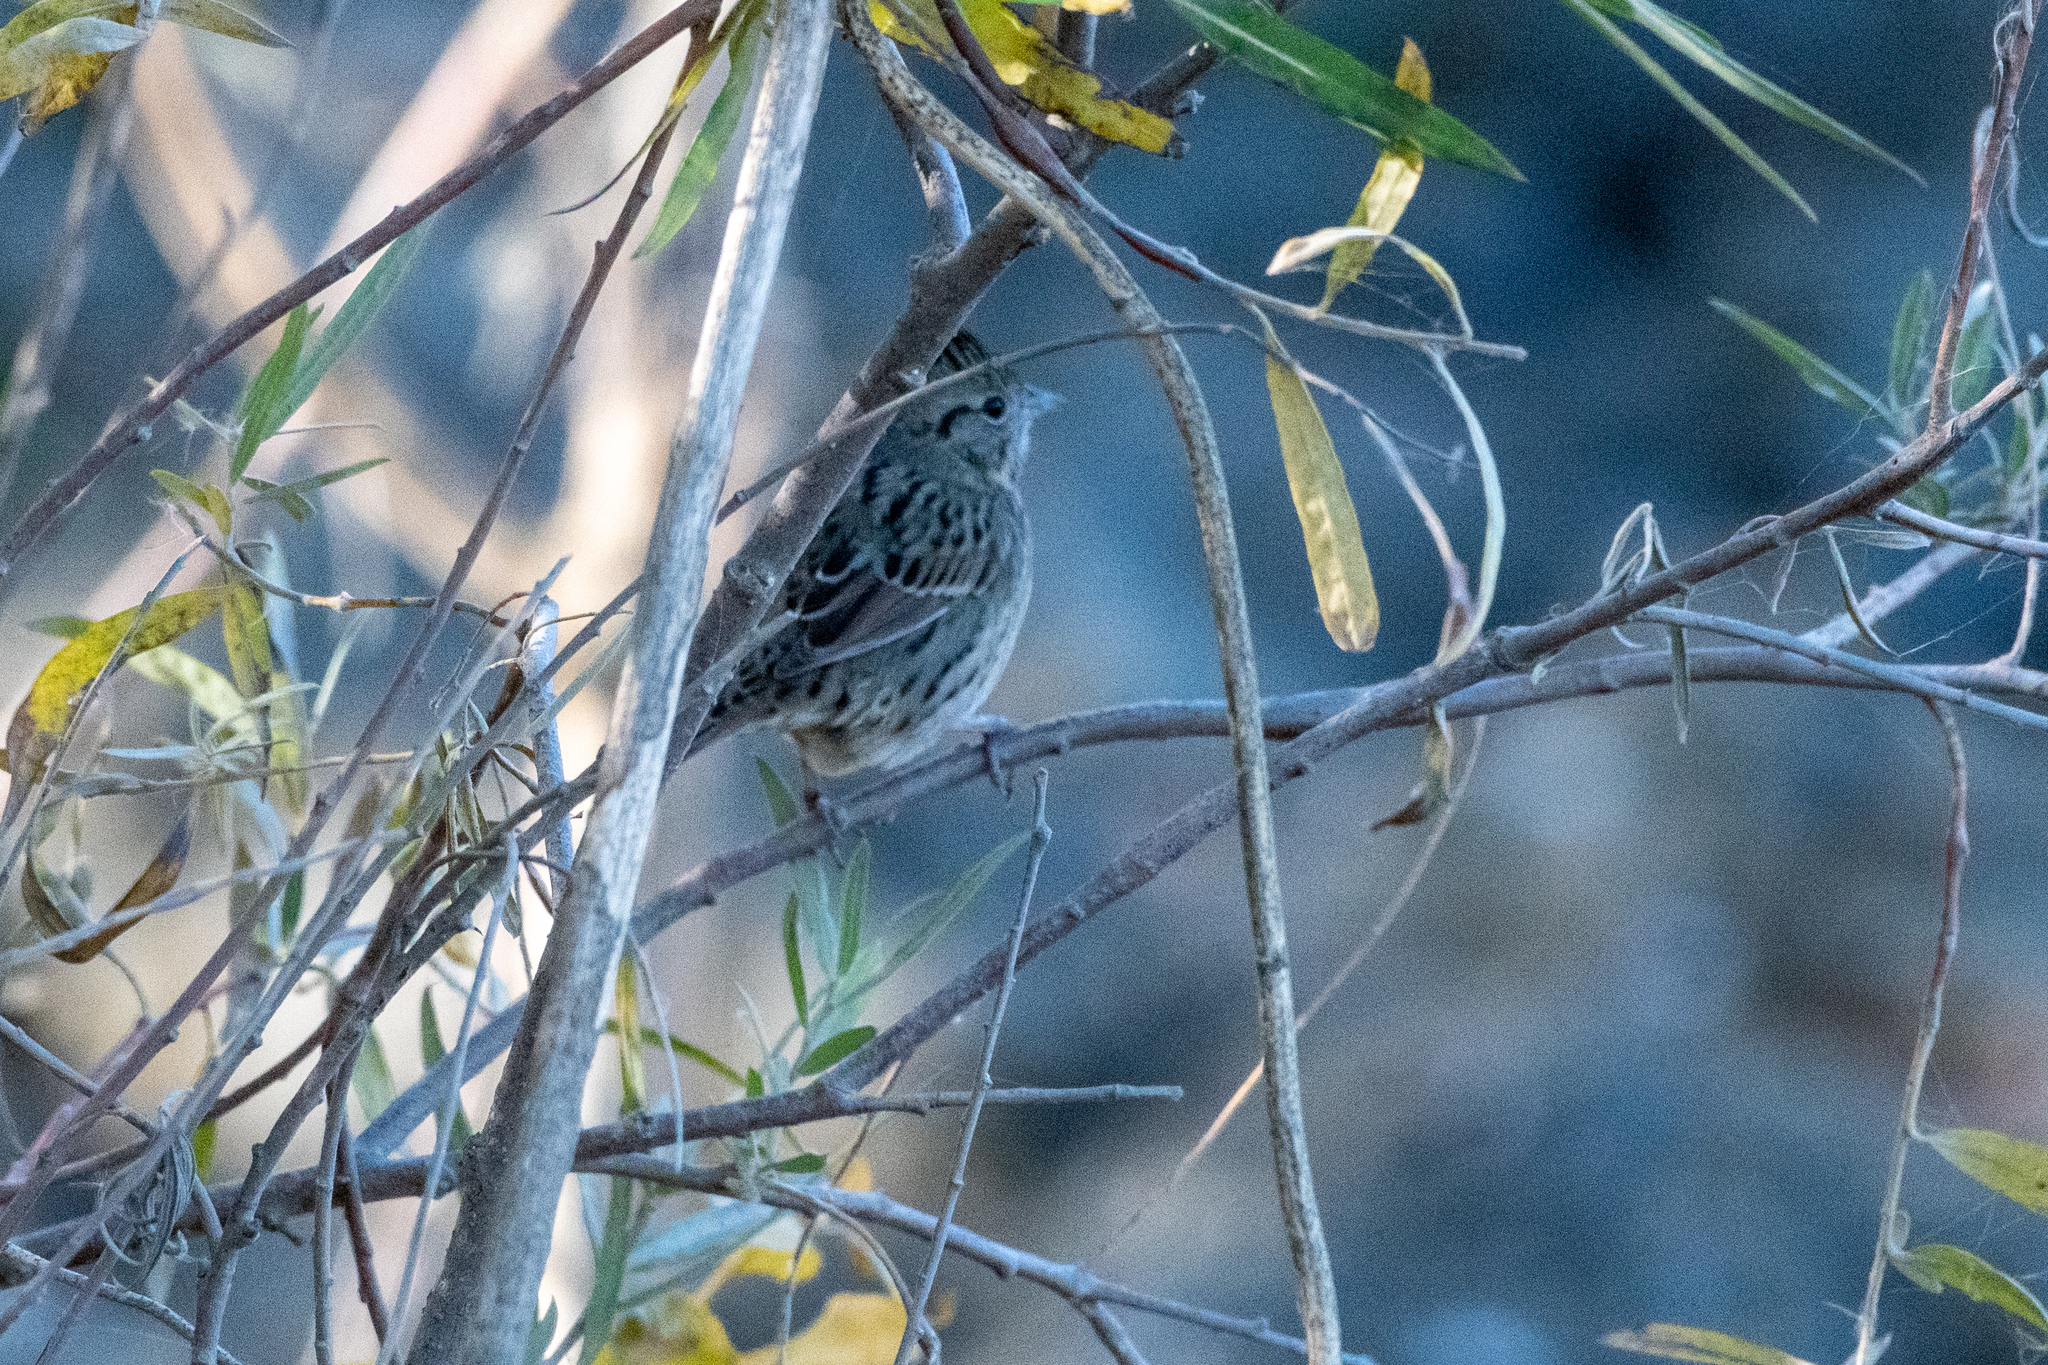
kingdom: Animalia
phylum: Chordata
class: Aves
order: Passeriformes
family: Passerellidae
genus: Melospiza
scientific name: Melospiza lincolnii
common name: Lincoln's sparrow
